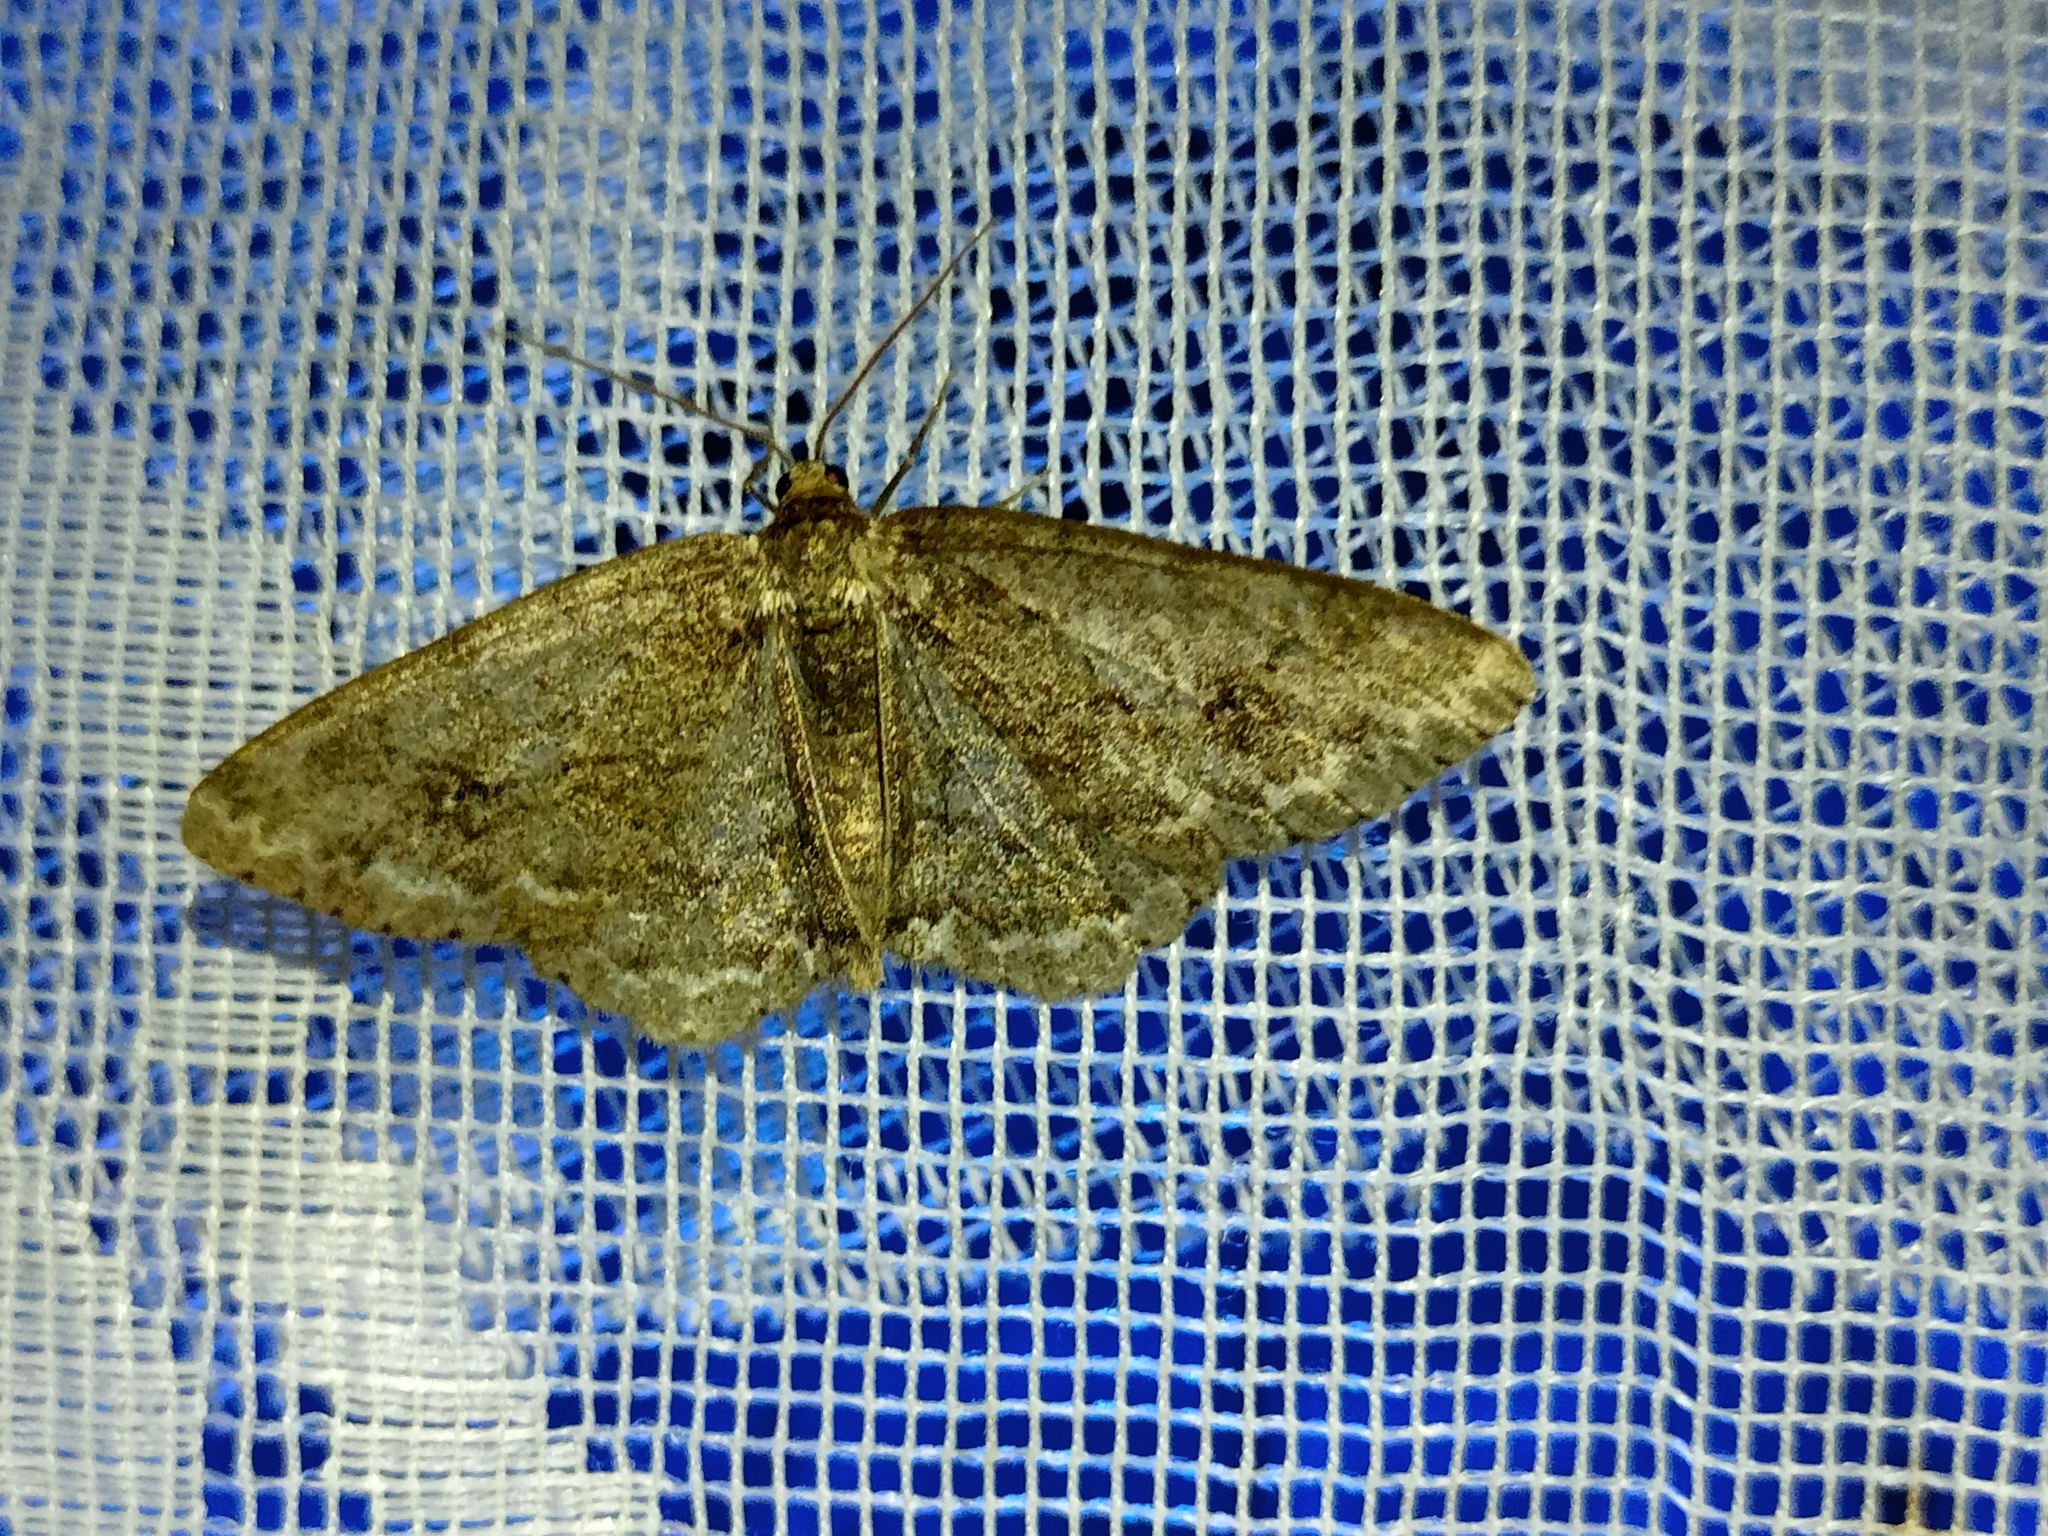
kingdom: Animalia
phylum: Arthropoda
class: Insecta
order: Lepidoptera
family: Geometridae
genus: Ectropis
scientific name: Ectropis crepuscularia
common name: Engrailed
